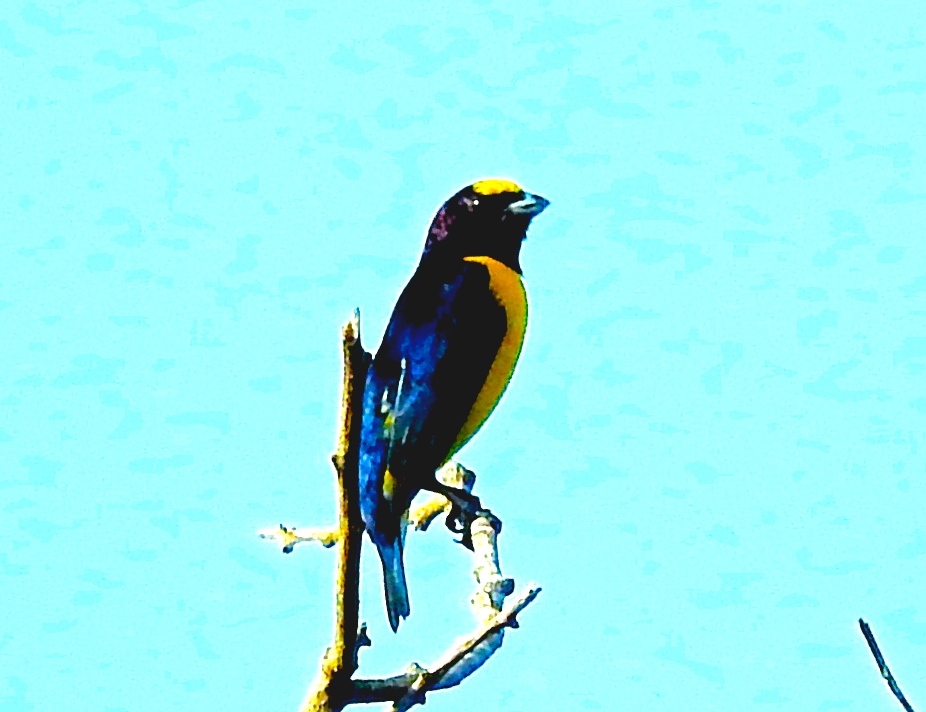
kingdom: Animalia
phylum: Chordata
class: Aves
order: Passeriformes
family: Fringillidae
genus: Euphonia
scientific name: Euphonia godmani
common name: West mexican euphonia
